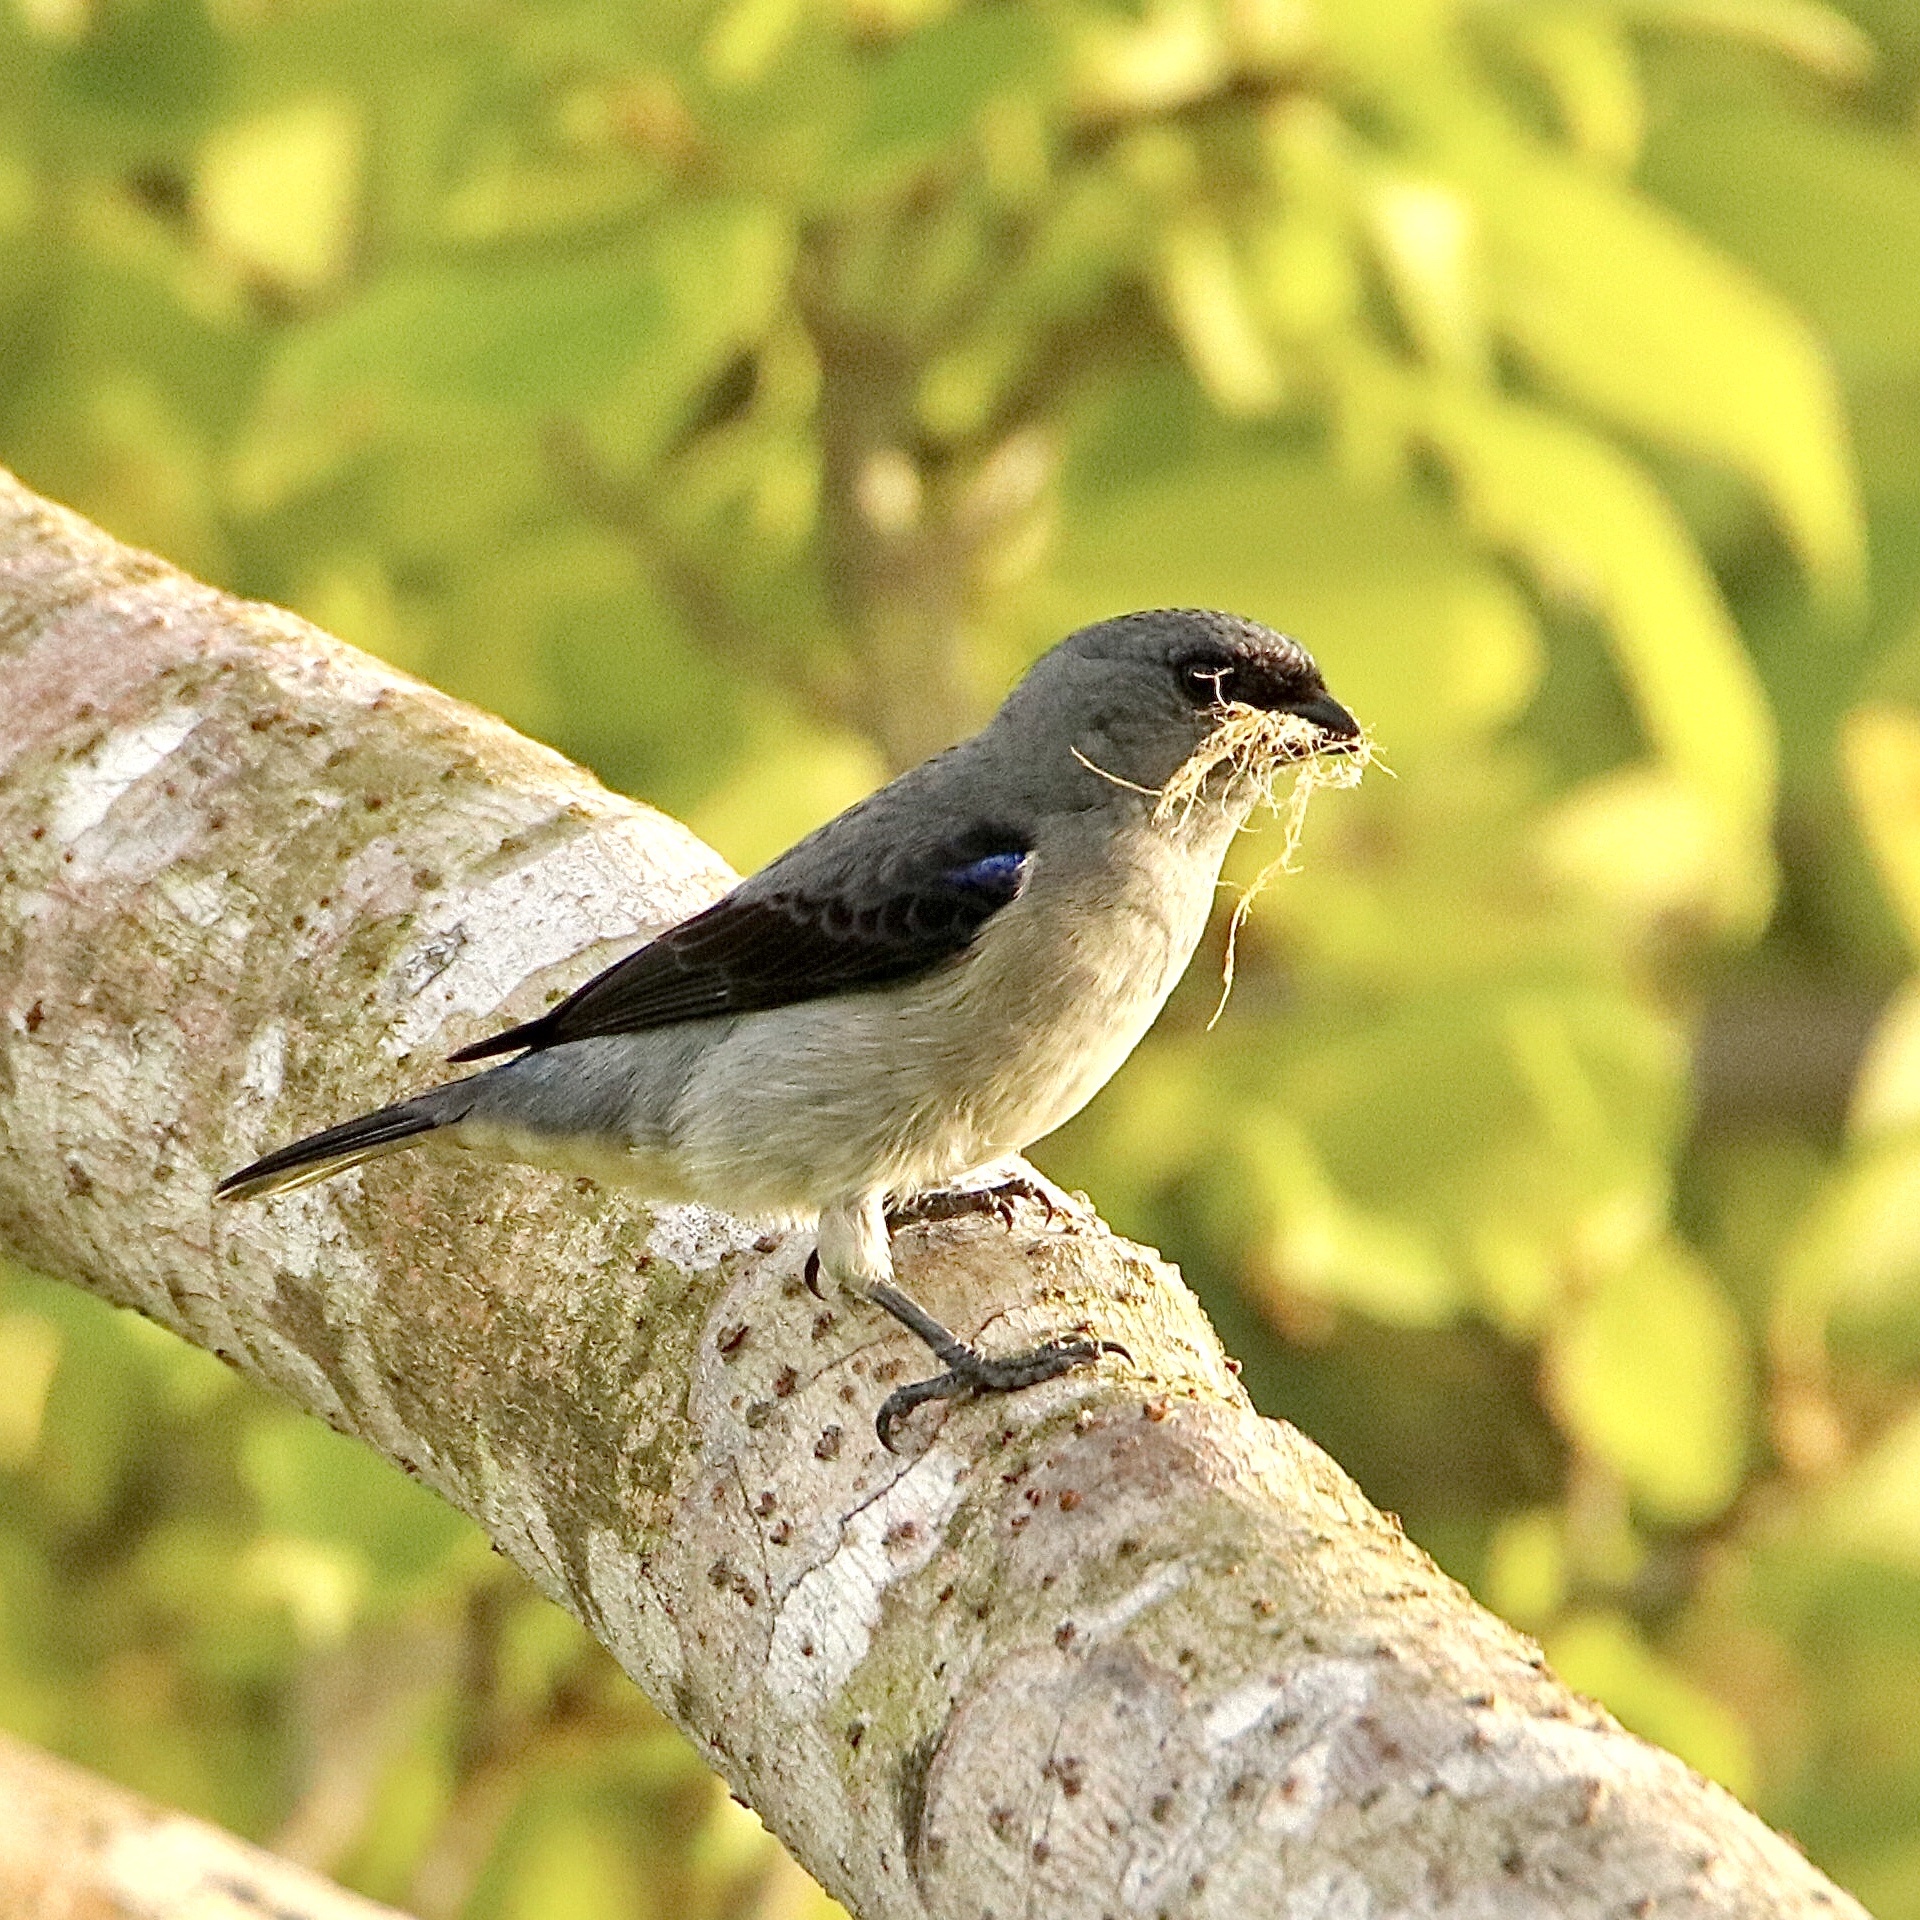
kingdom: Animalia
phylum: Chordata
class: Aves
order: Passeriformes
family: Thraupidae
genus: Tangara
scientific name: Tangara inornata
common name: Plain-colored tanager
